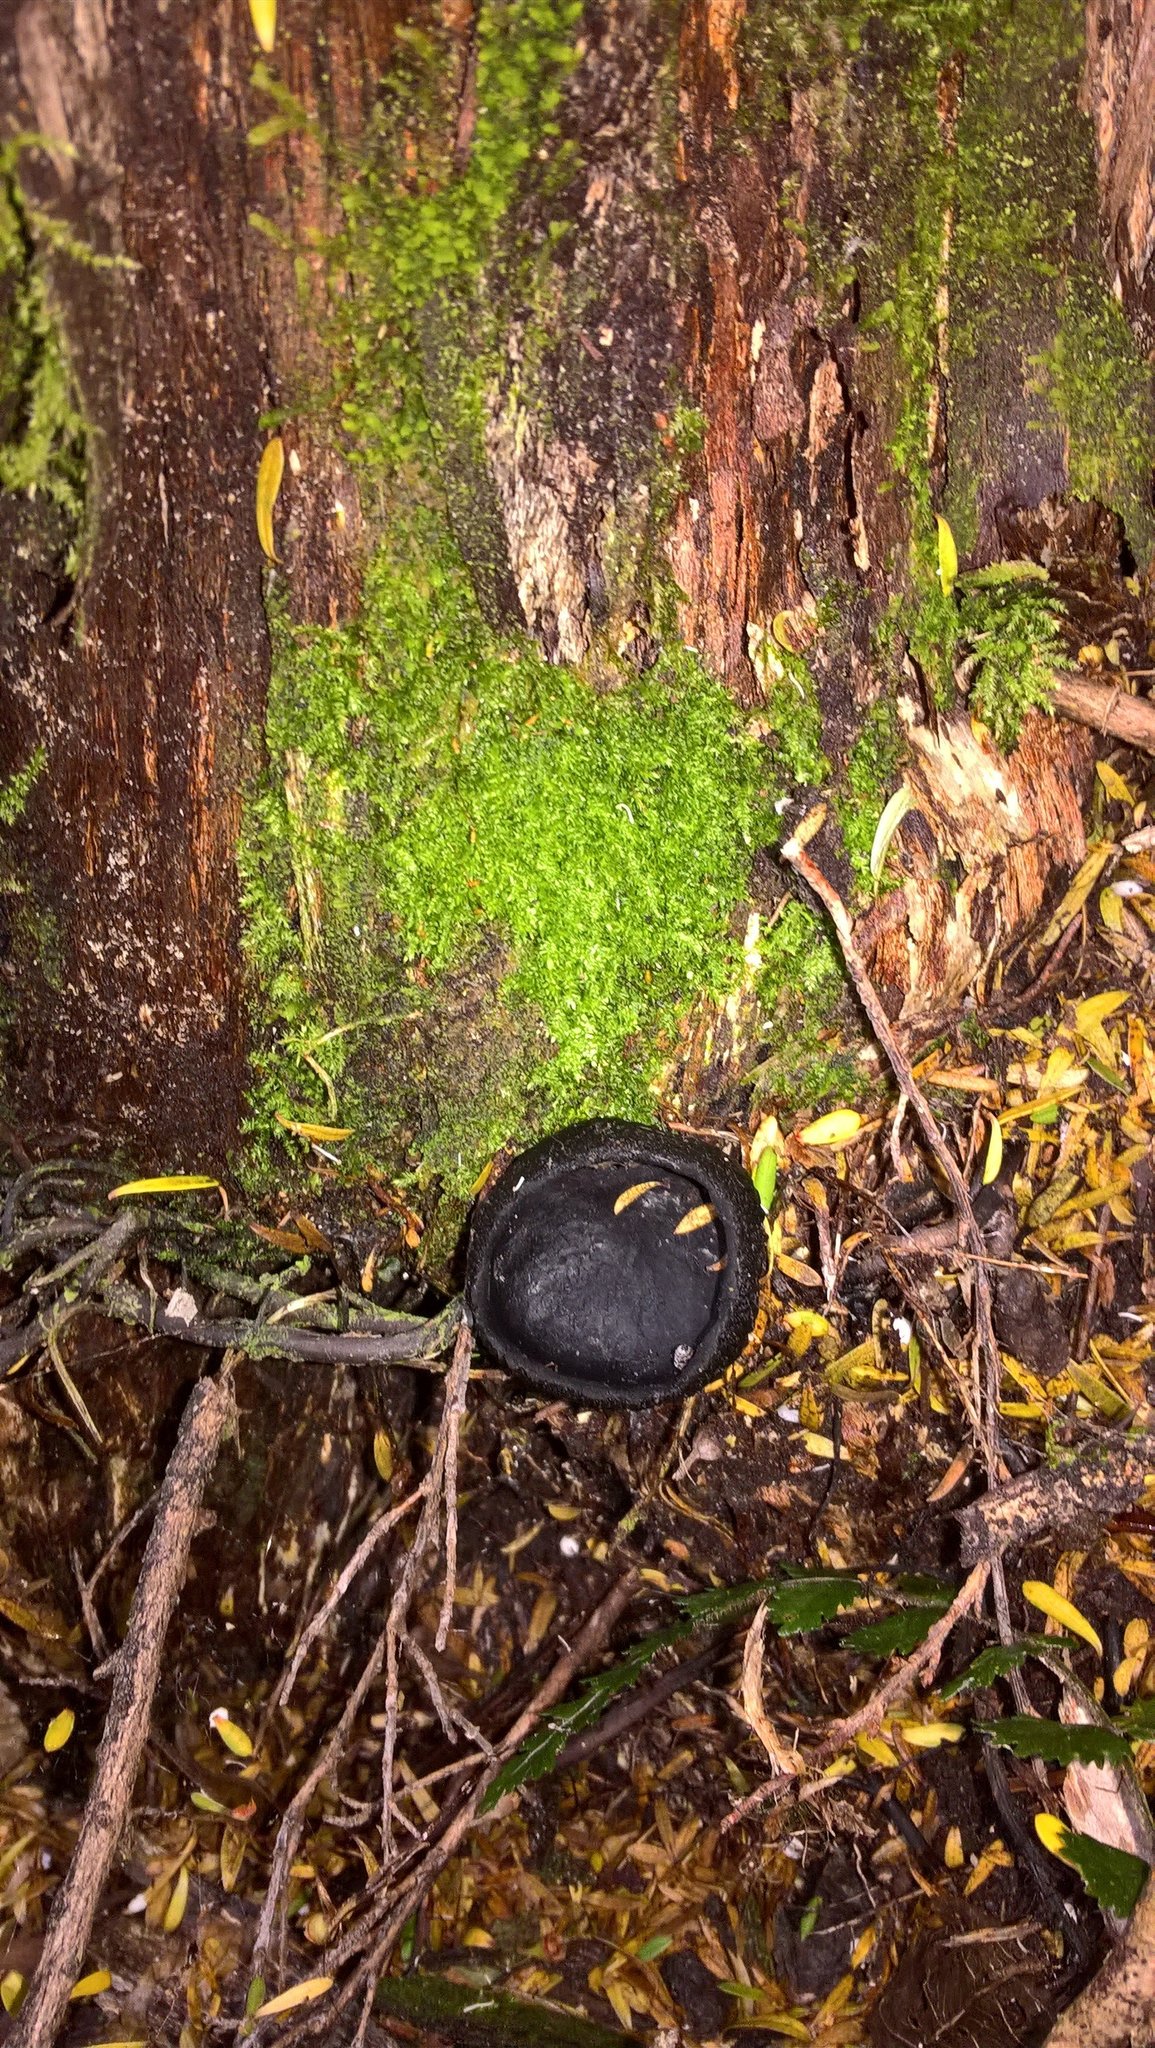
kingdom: Fungi
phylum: Ascomycota
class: Pezizomycetes
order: Pezizales
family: Sarcosomataceae
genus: Plectania
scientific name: Plectania rhytidia
